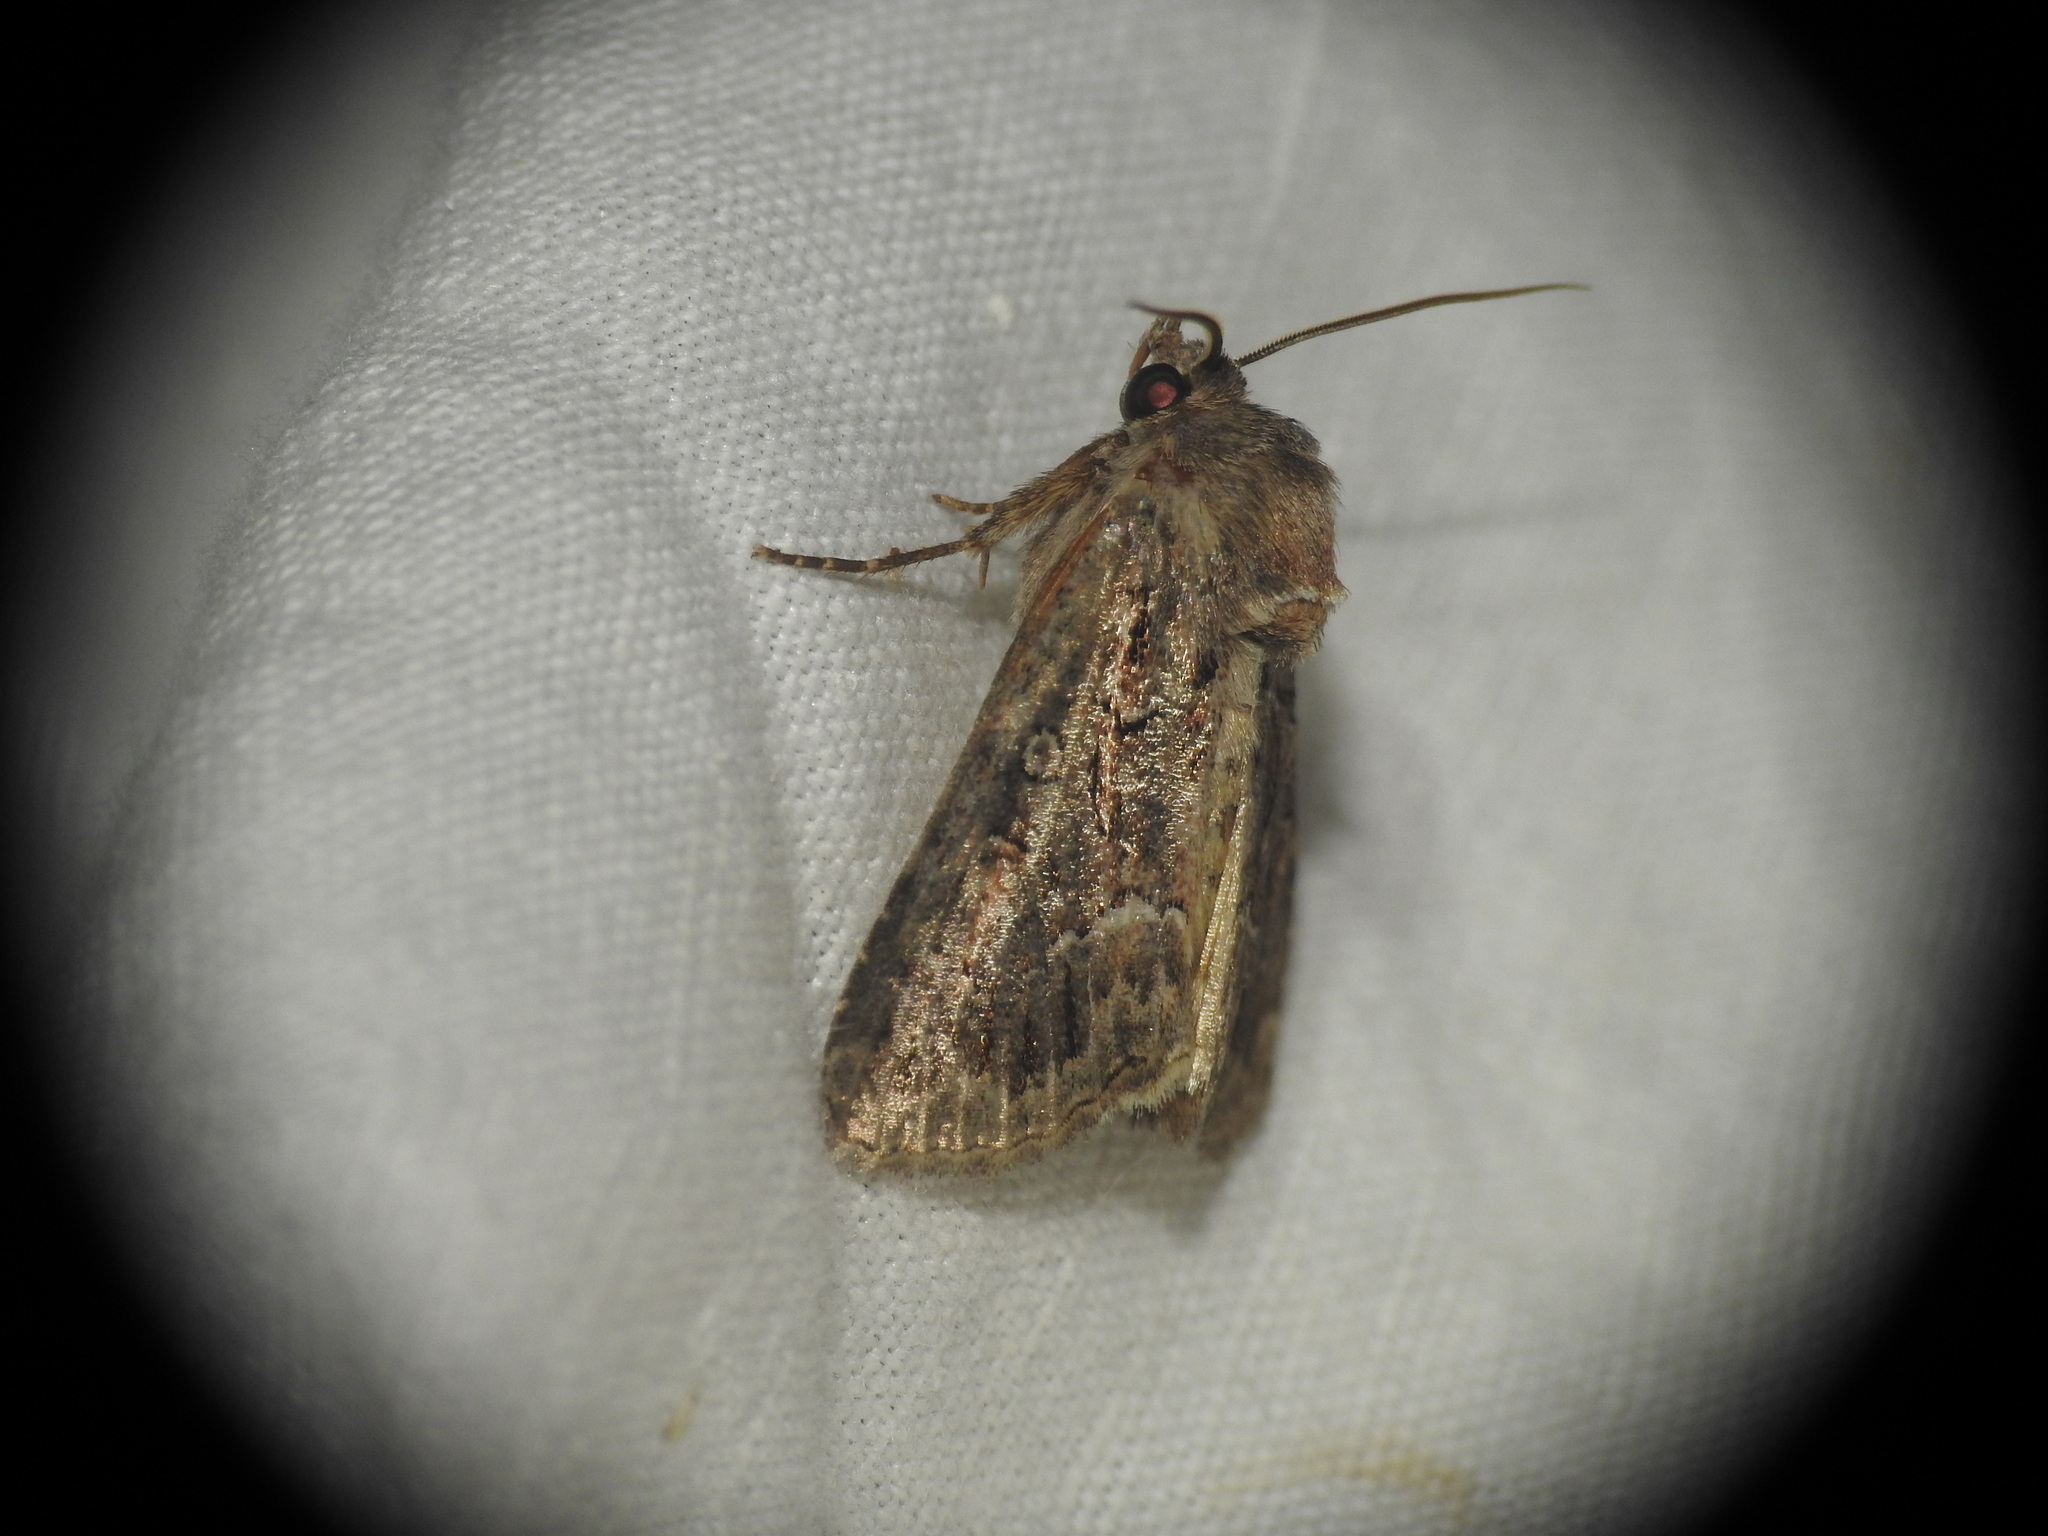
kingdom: Animalia
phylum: Arthropoda
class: Insecta
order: Lepidoptera
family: Noctuidae
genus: Thalpophila
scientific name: Thalpophila matura
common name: Straw underwing
